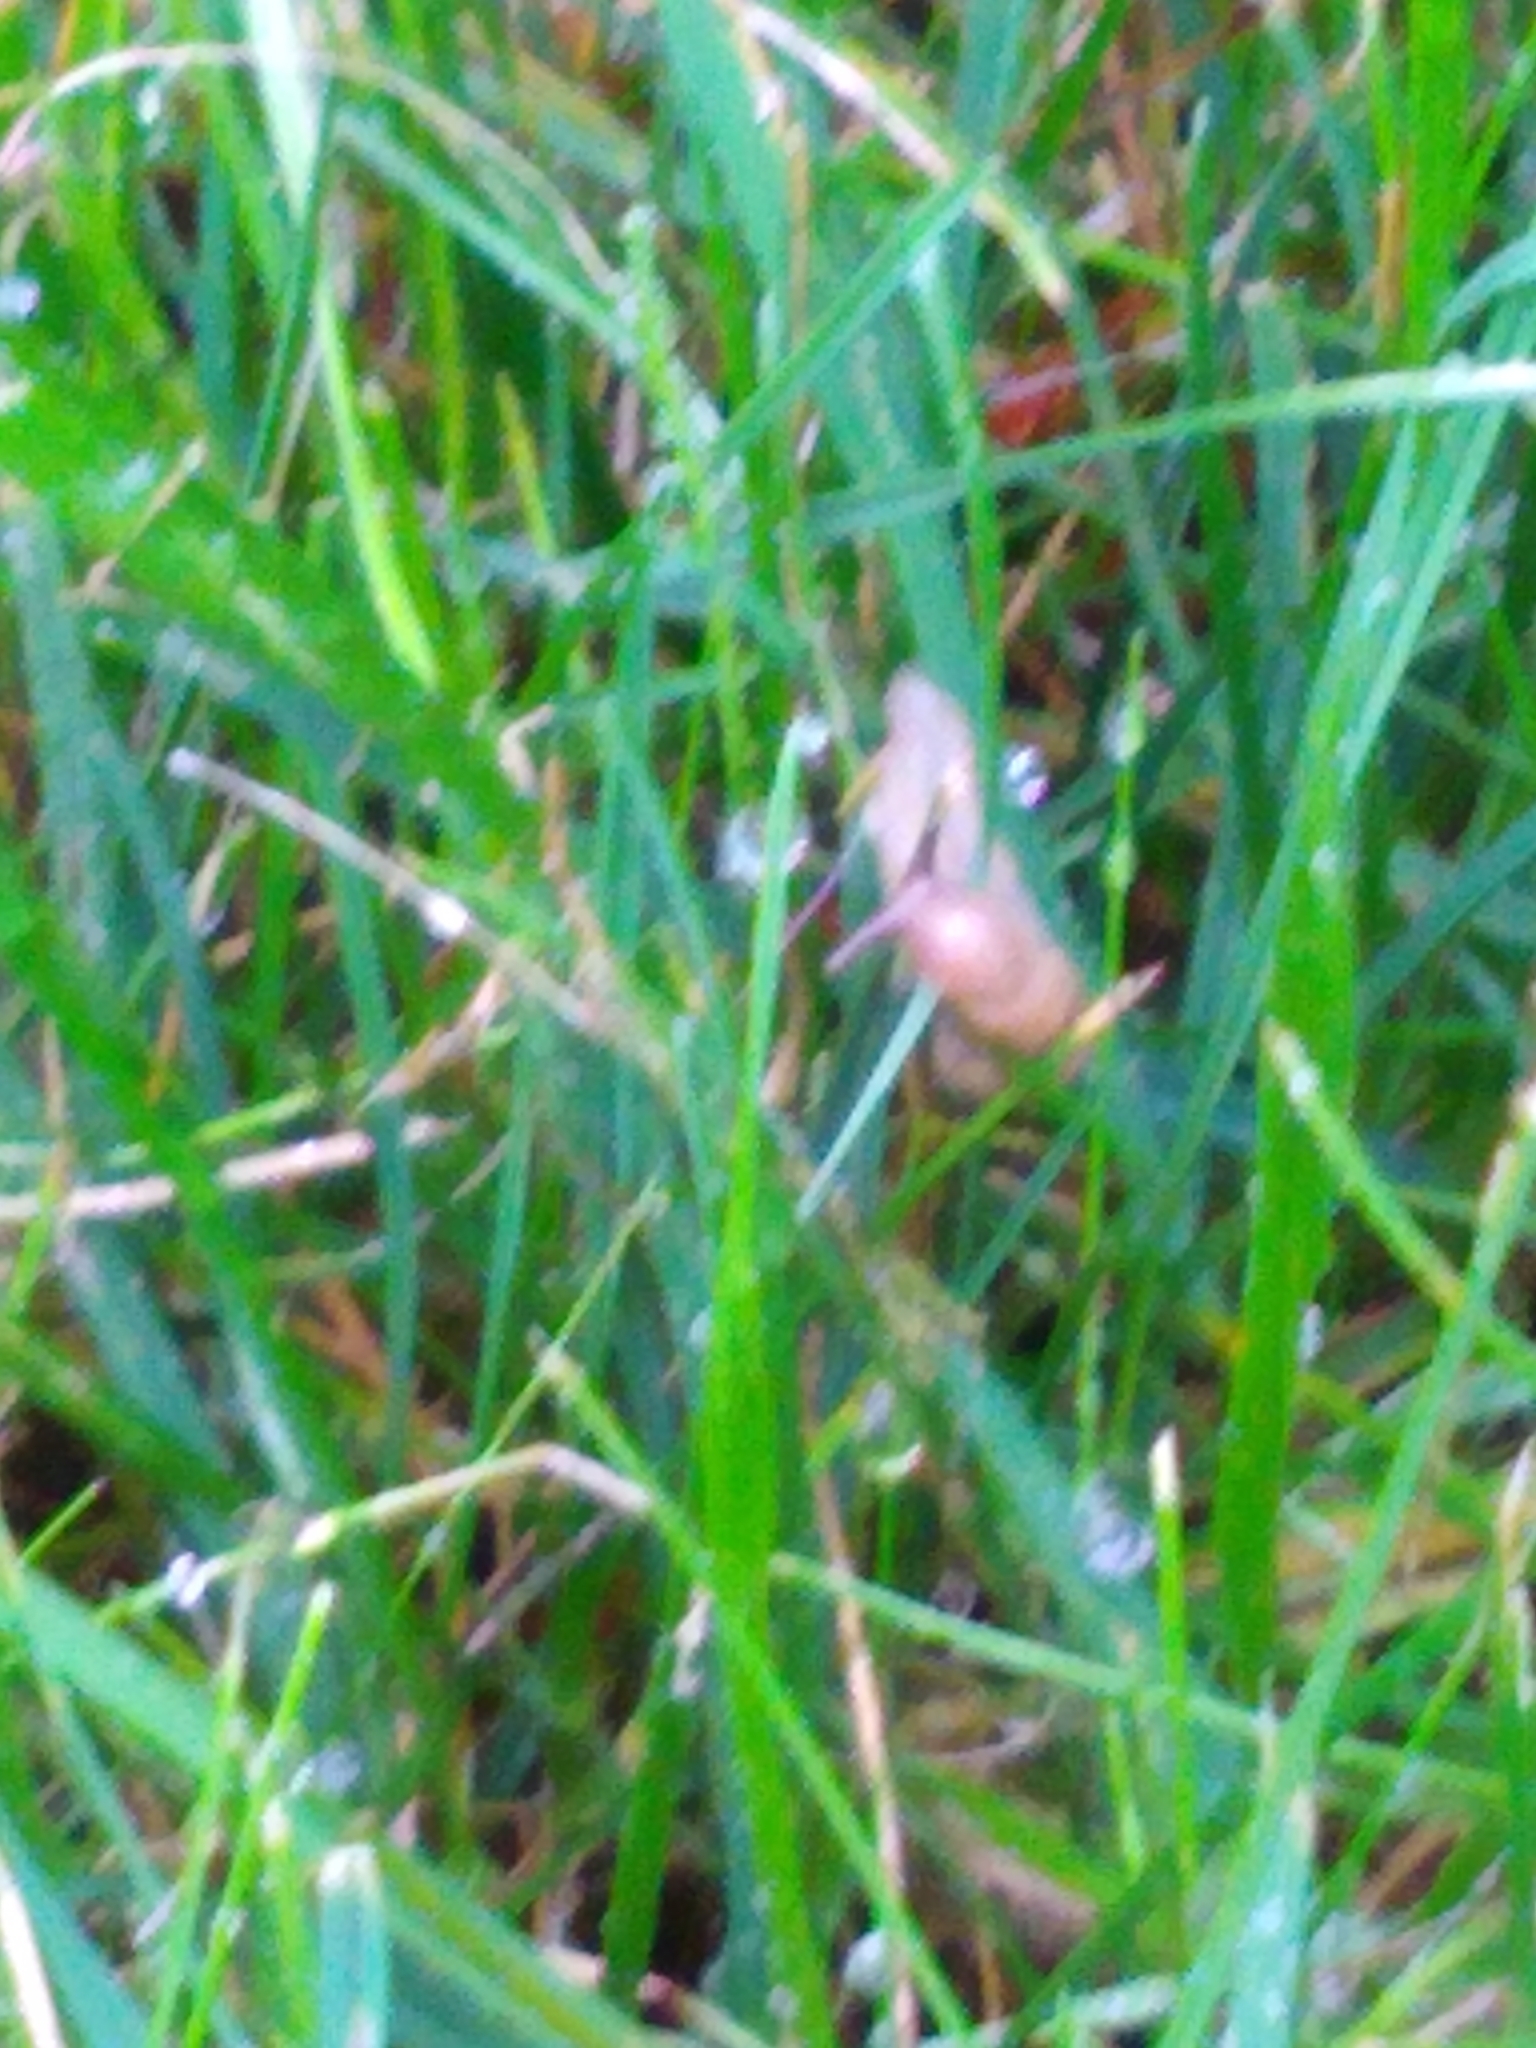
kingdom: Animalia
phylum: Mollusca
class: Gastropoda
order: Stylommatophora
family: Agriolimacidae
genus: Deroceras
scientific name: Deroceras reticulatum
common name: Gray field slug
